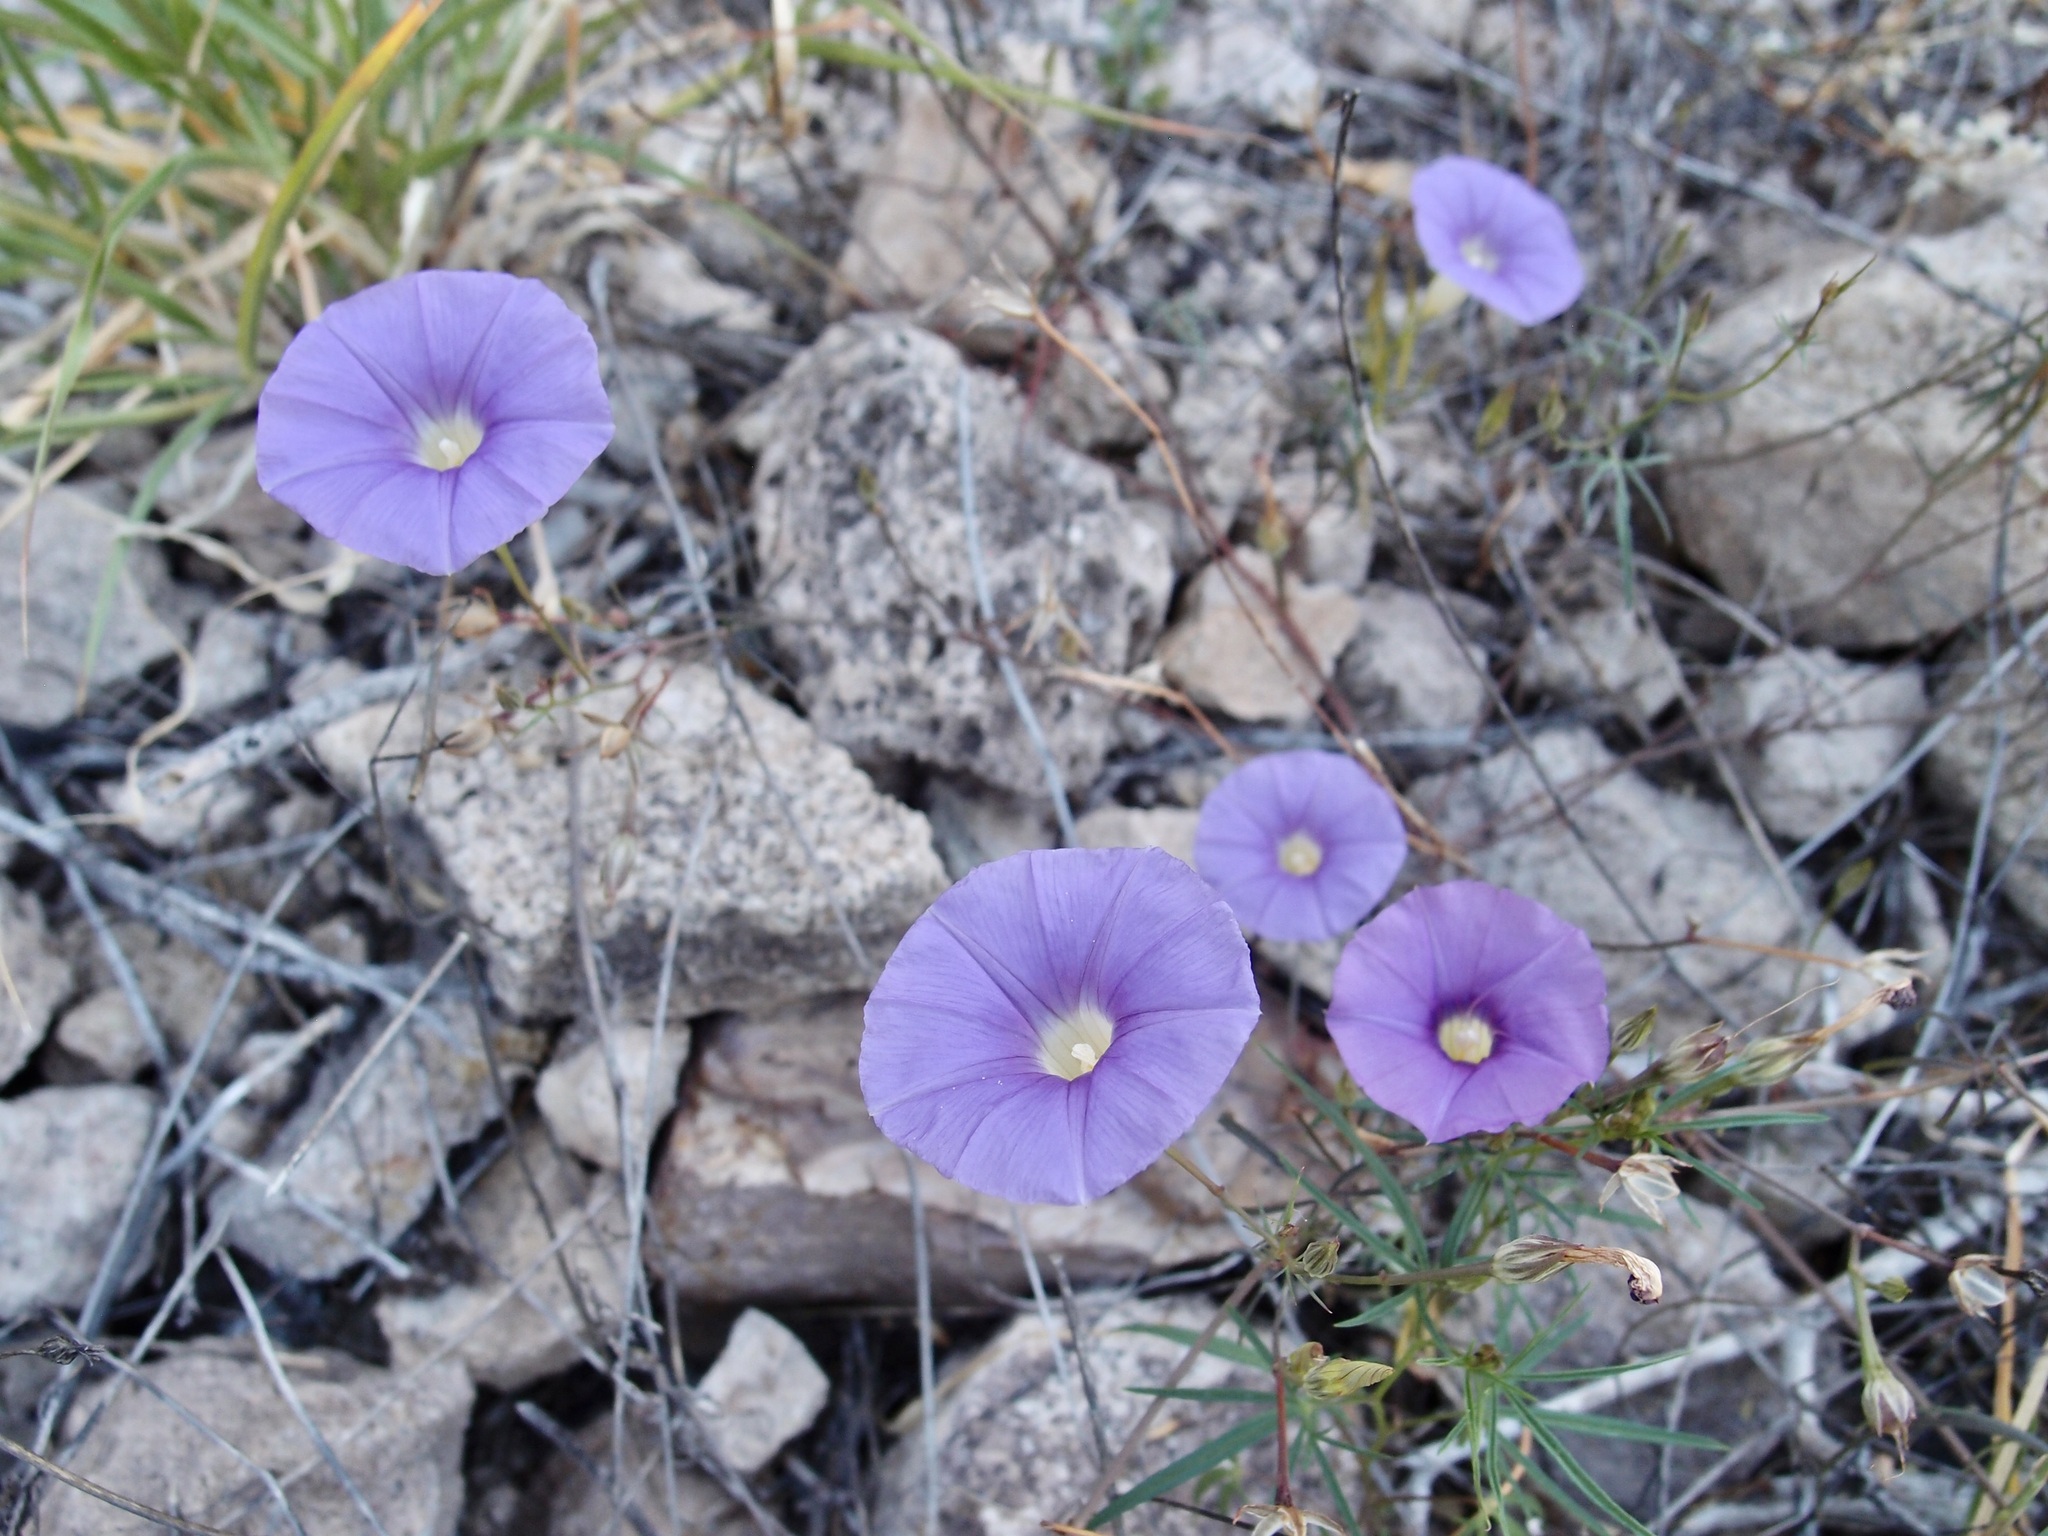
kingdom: Plantae
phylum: Tracheophyta
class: Magnoliopsida
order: Solanales
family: Convolvulaceae
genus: Ipomoea
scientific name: Ipomoea ternifolia
